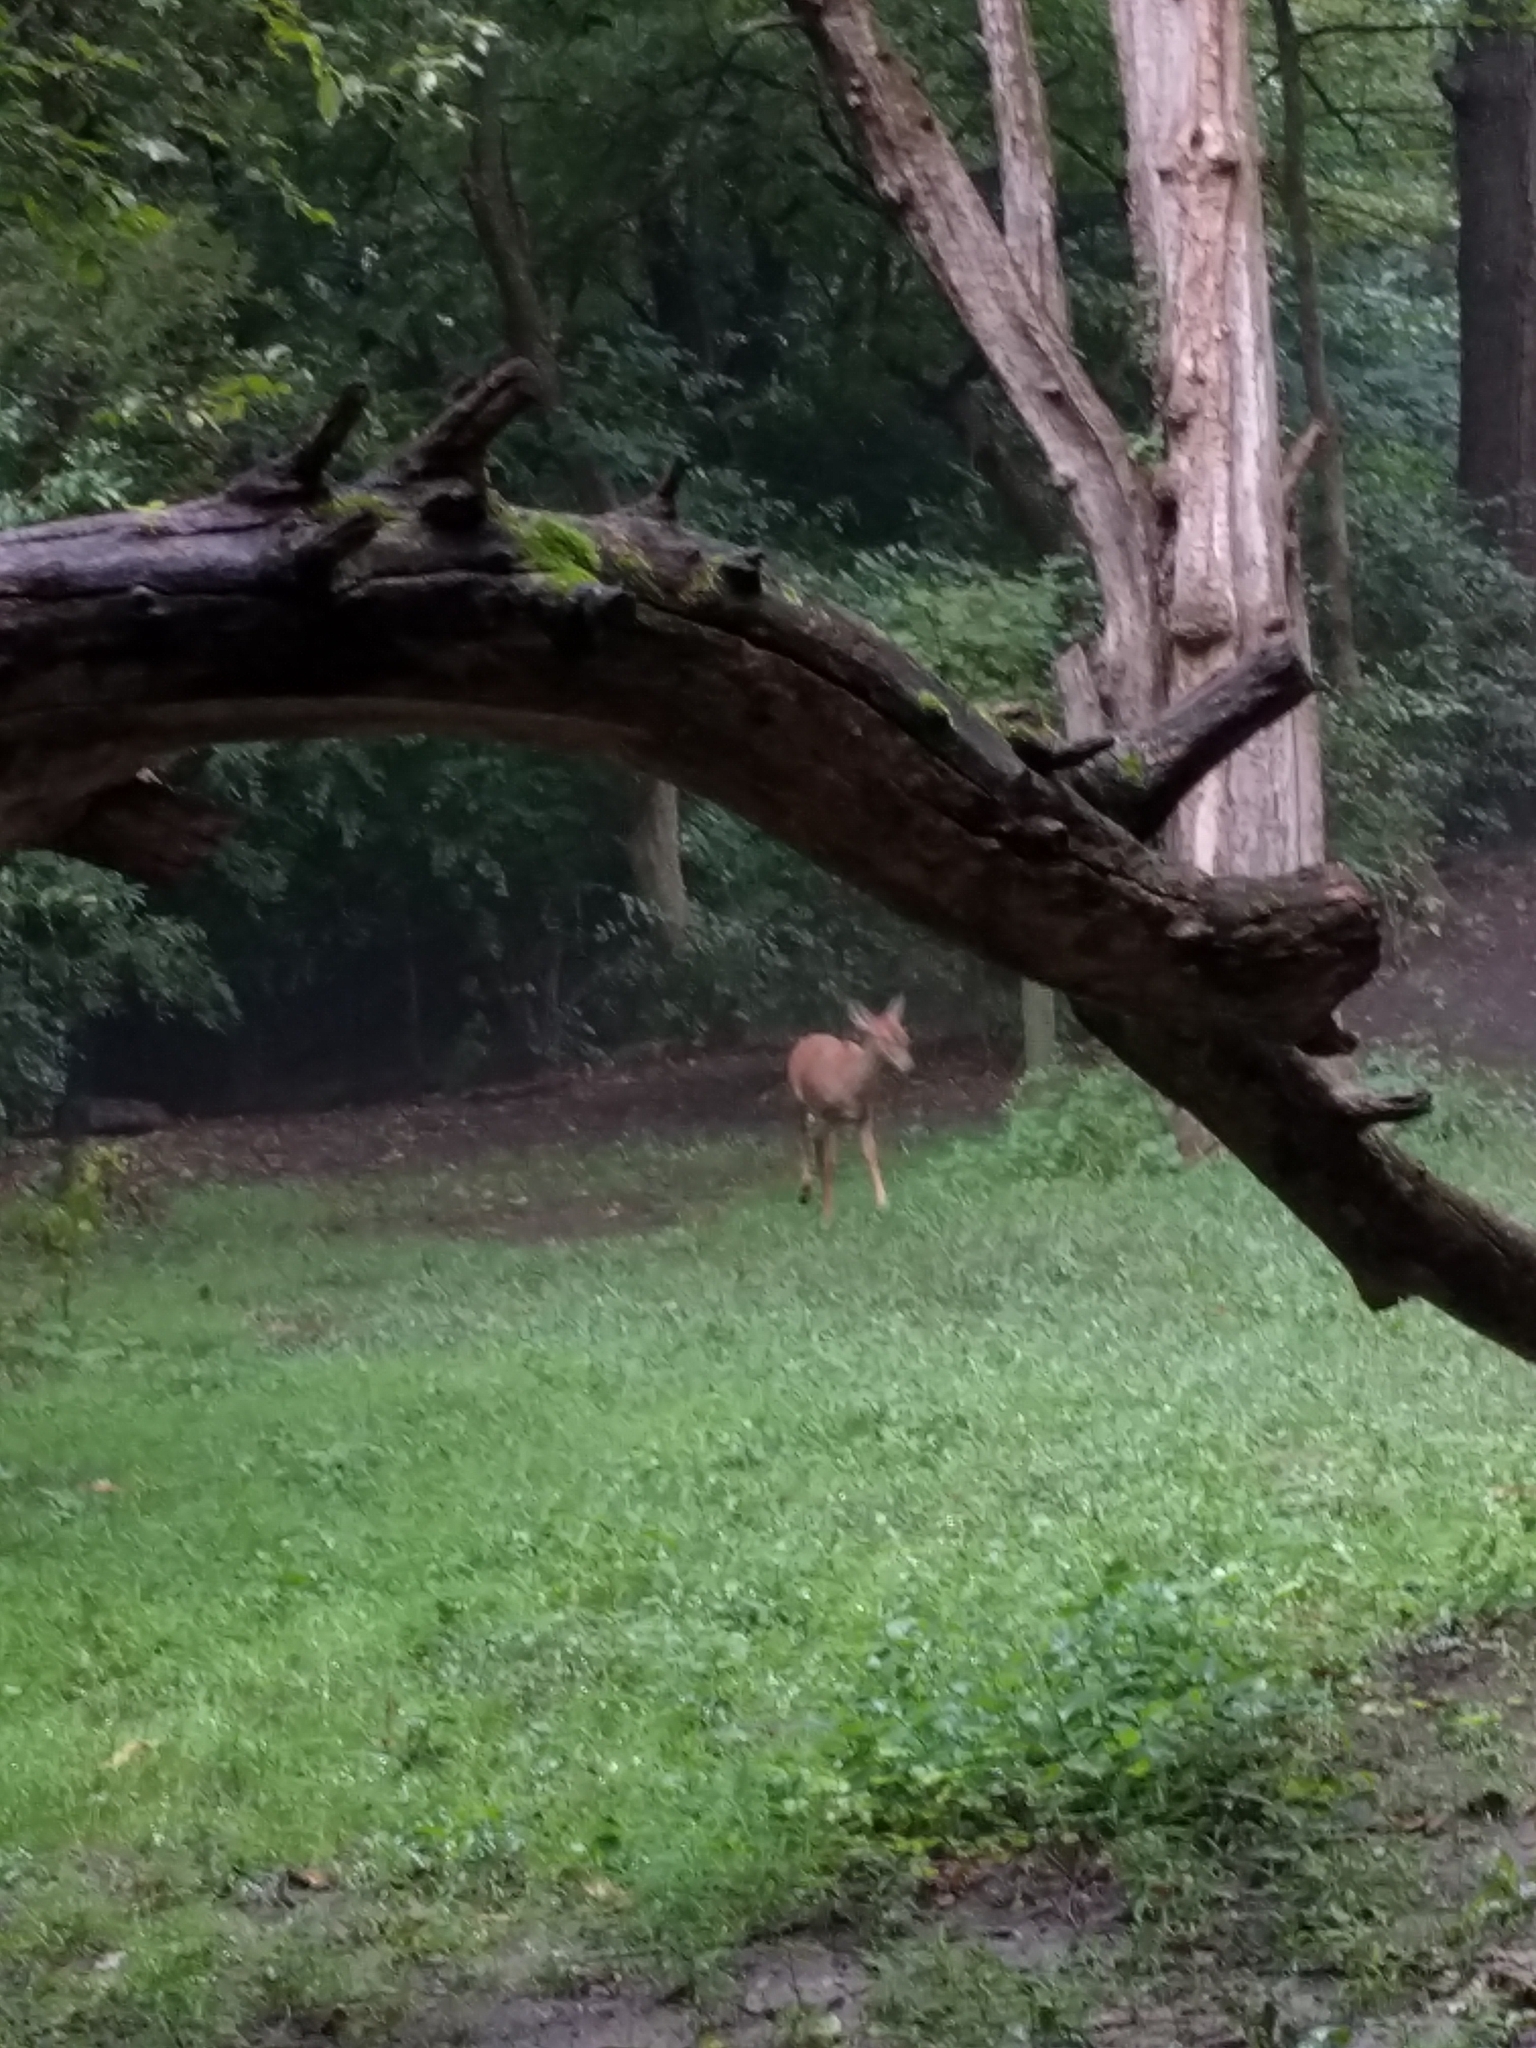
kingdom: Animalia
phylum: Chordata
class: Mammalia
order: Artiodactyla
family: Cervidae
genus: Odocoileus
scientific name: Odocoileus virginianus
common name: White-tailed deer
